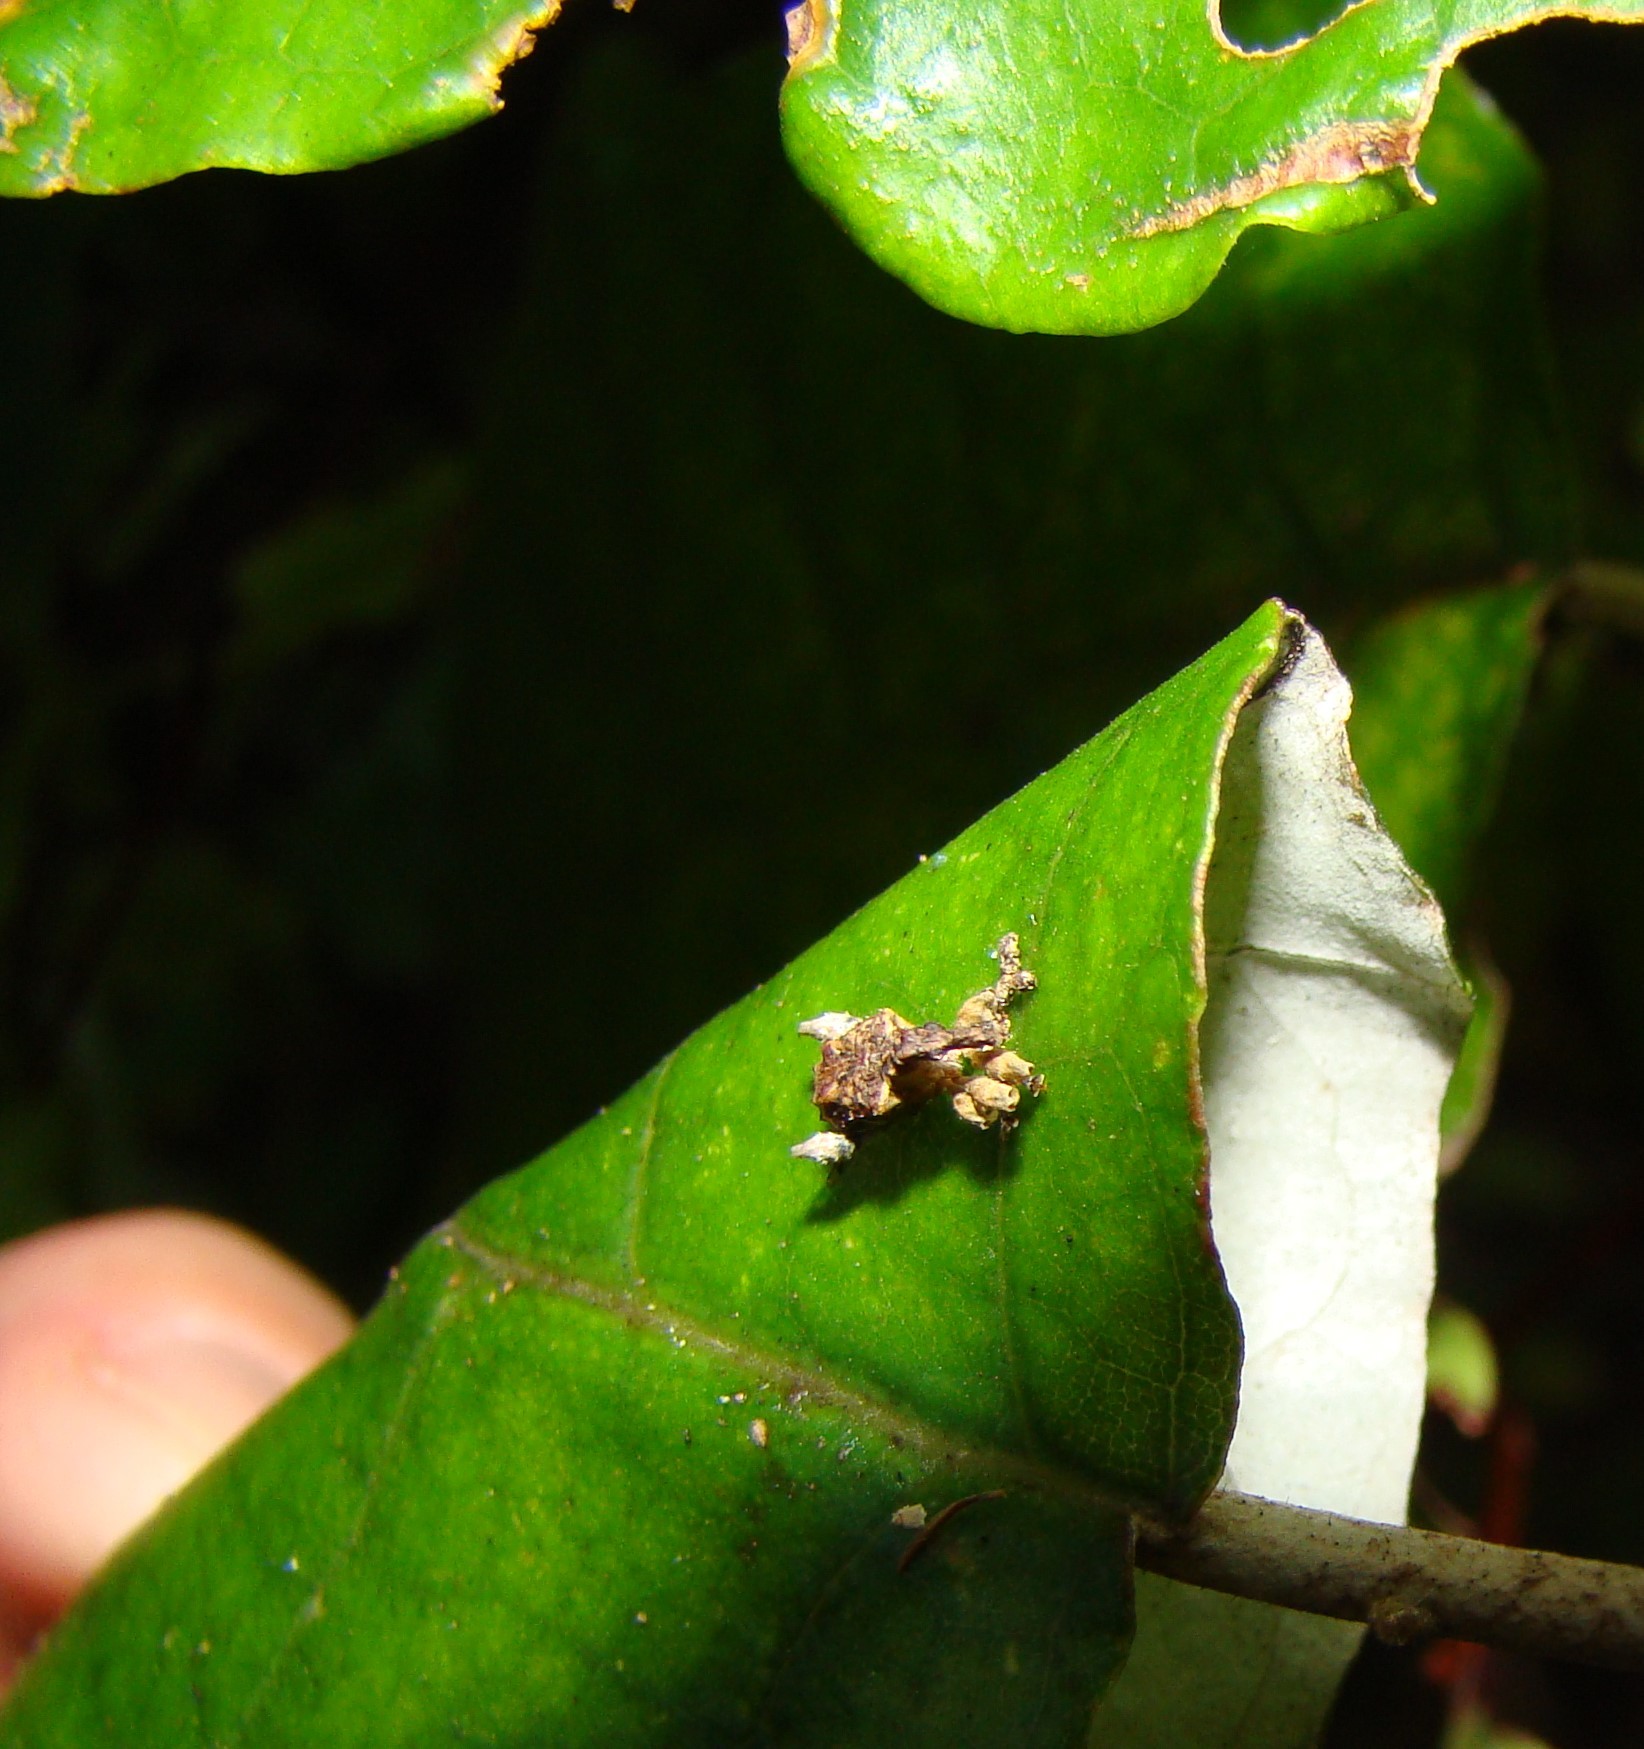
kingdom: Animalia
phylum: Arthropoda
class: Insecta
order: Coleoptera
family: Curculionidae
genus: Stephanorhynchus
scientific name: Stephanorhynchus curvipes
